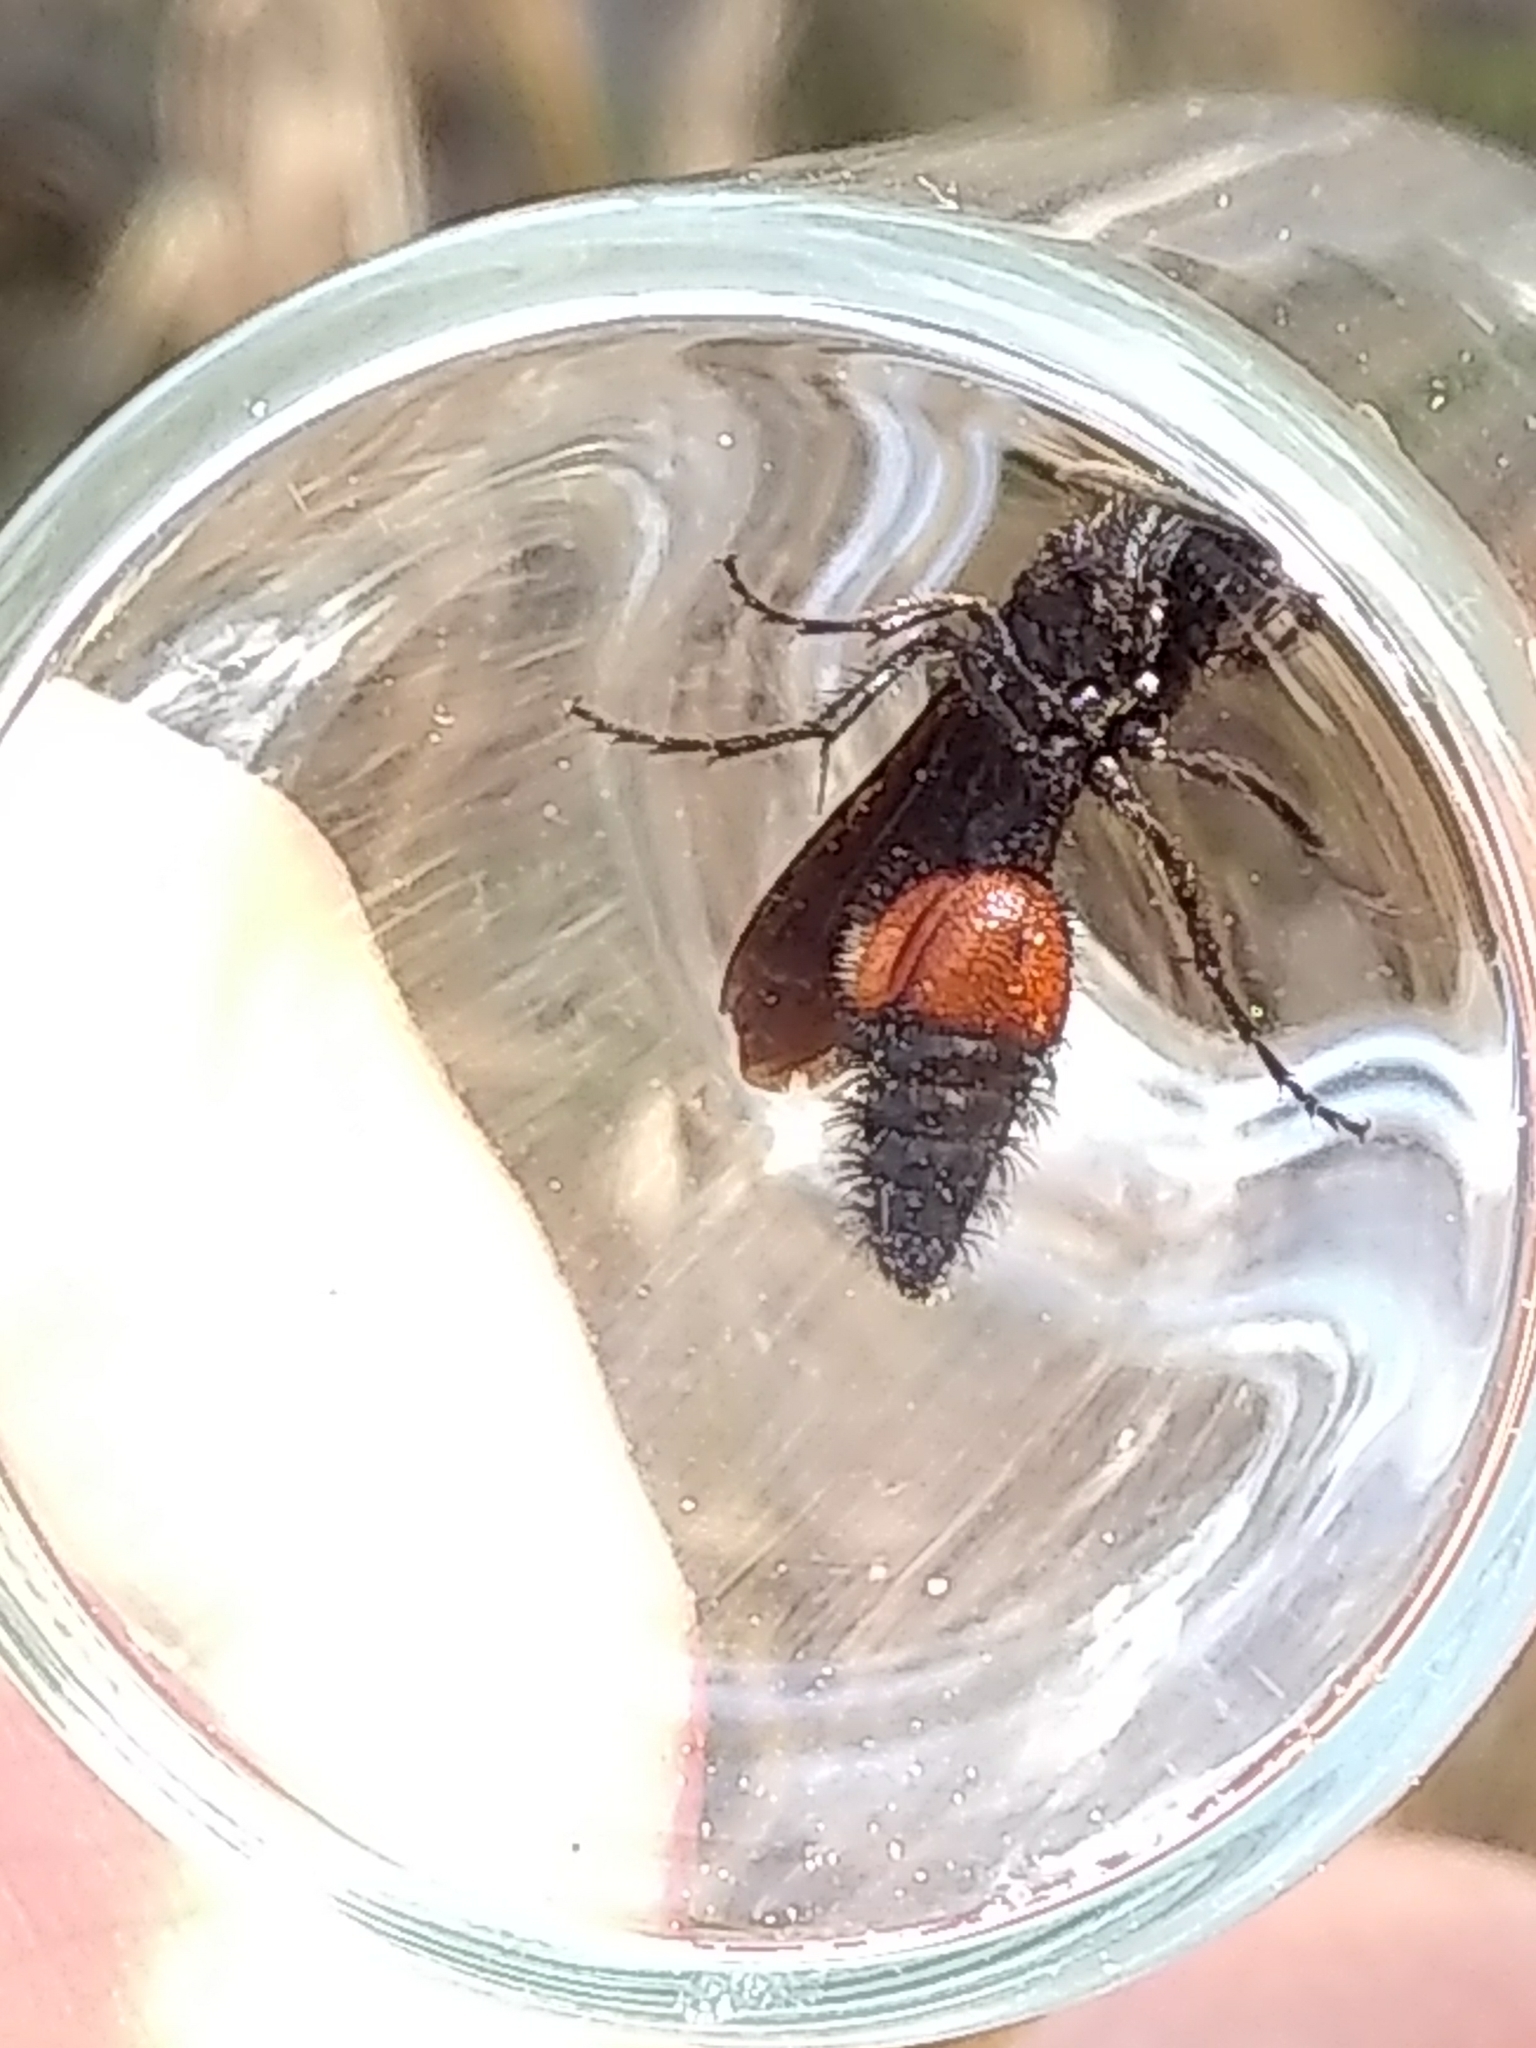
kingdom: Animalia
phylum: Arthropoda
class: Insecta
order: Hymenoptera
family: Mutillidae
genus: Dasymutilla
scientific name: Dasymutilla
